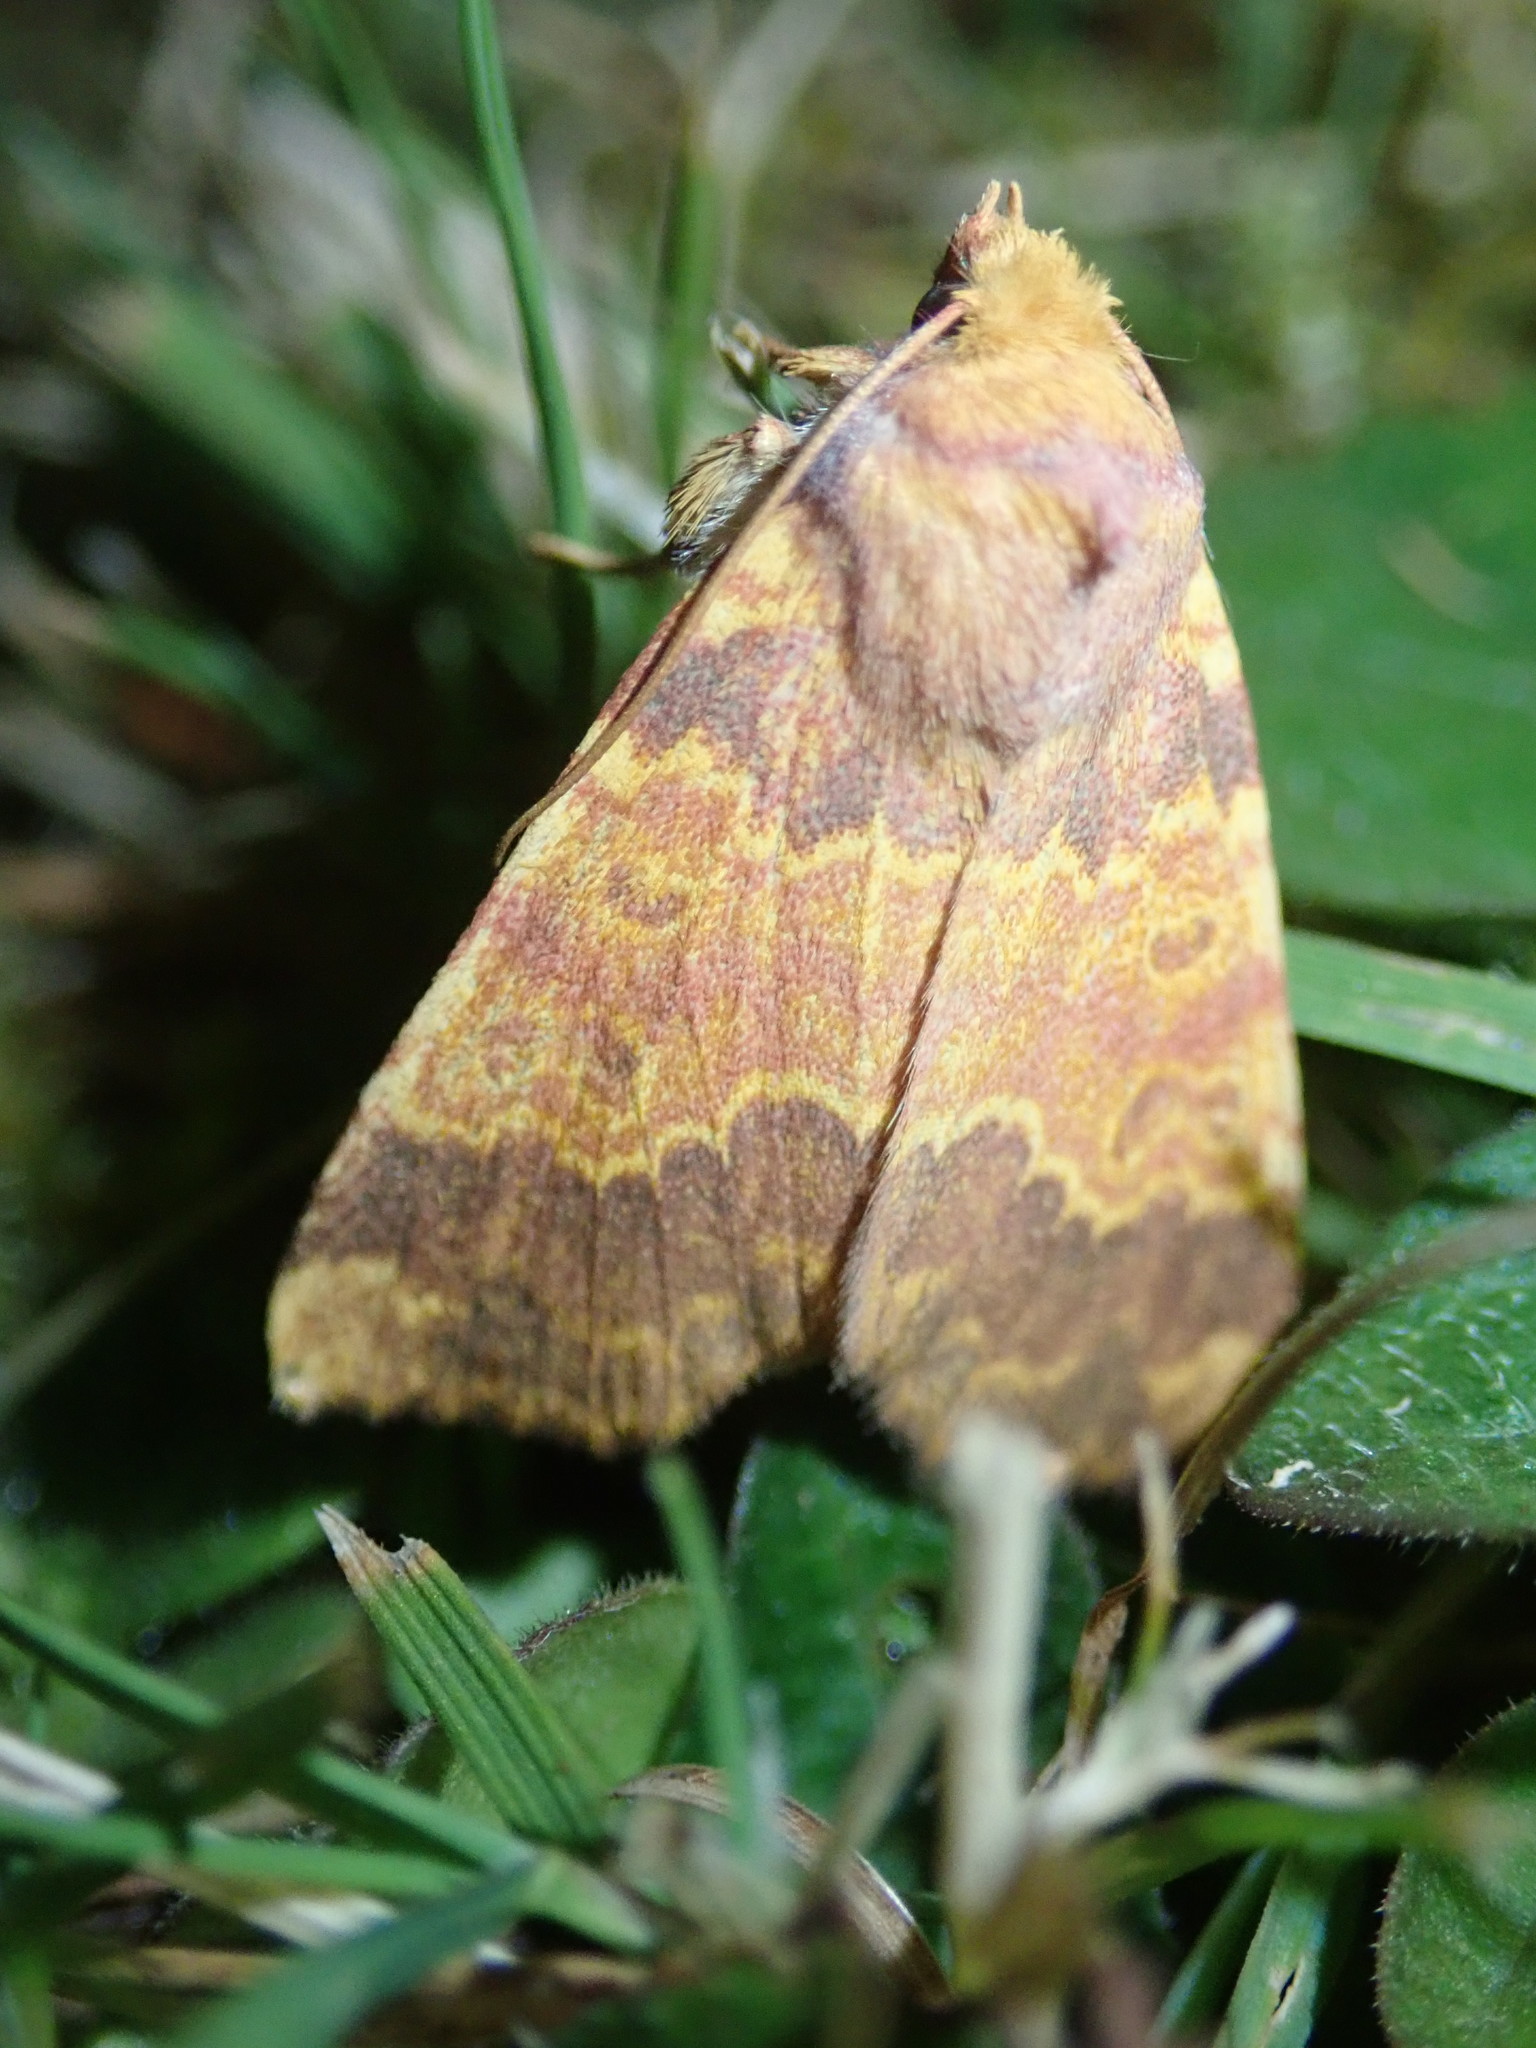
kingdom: Animalia
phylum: Arthropoda
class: Insecta
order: Lepidoptera
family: Noctuidae
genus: Tiliacea
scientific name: Tiliacea aurago
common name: Barred sallow
